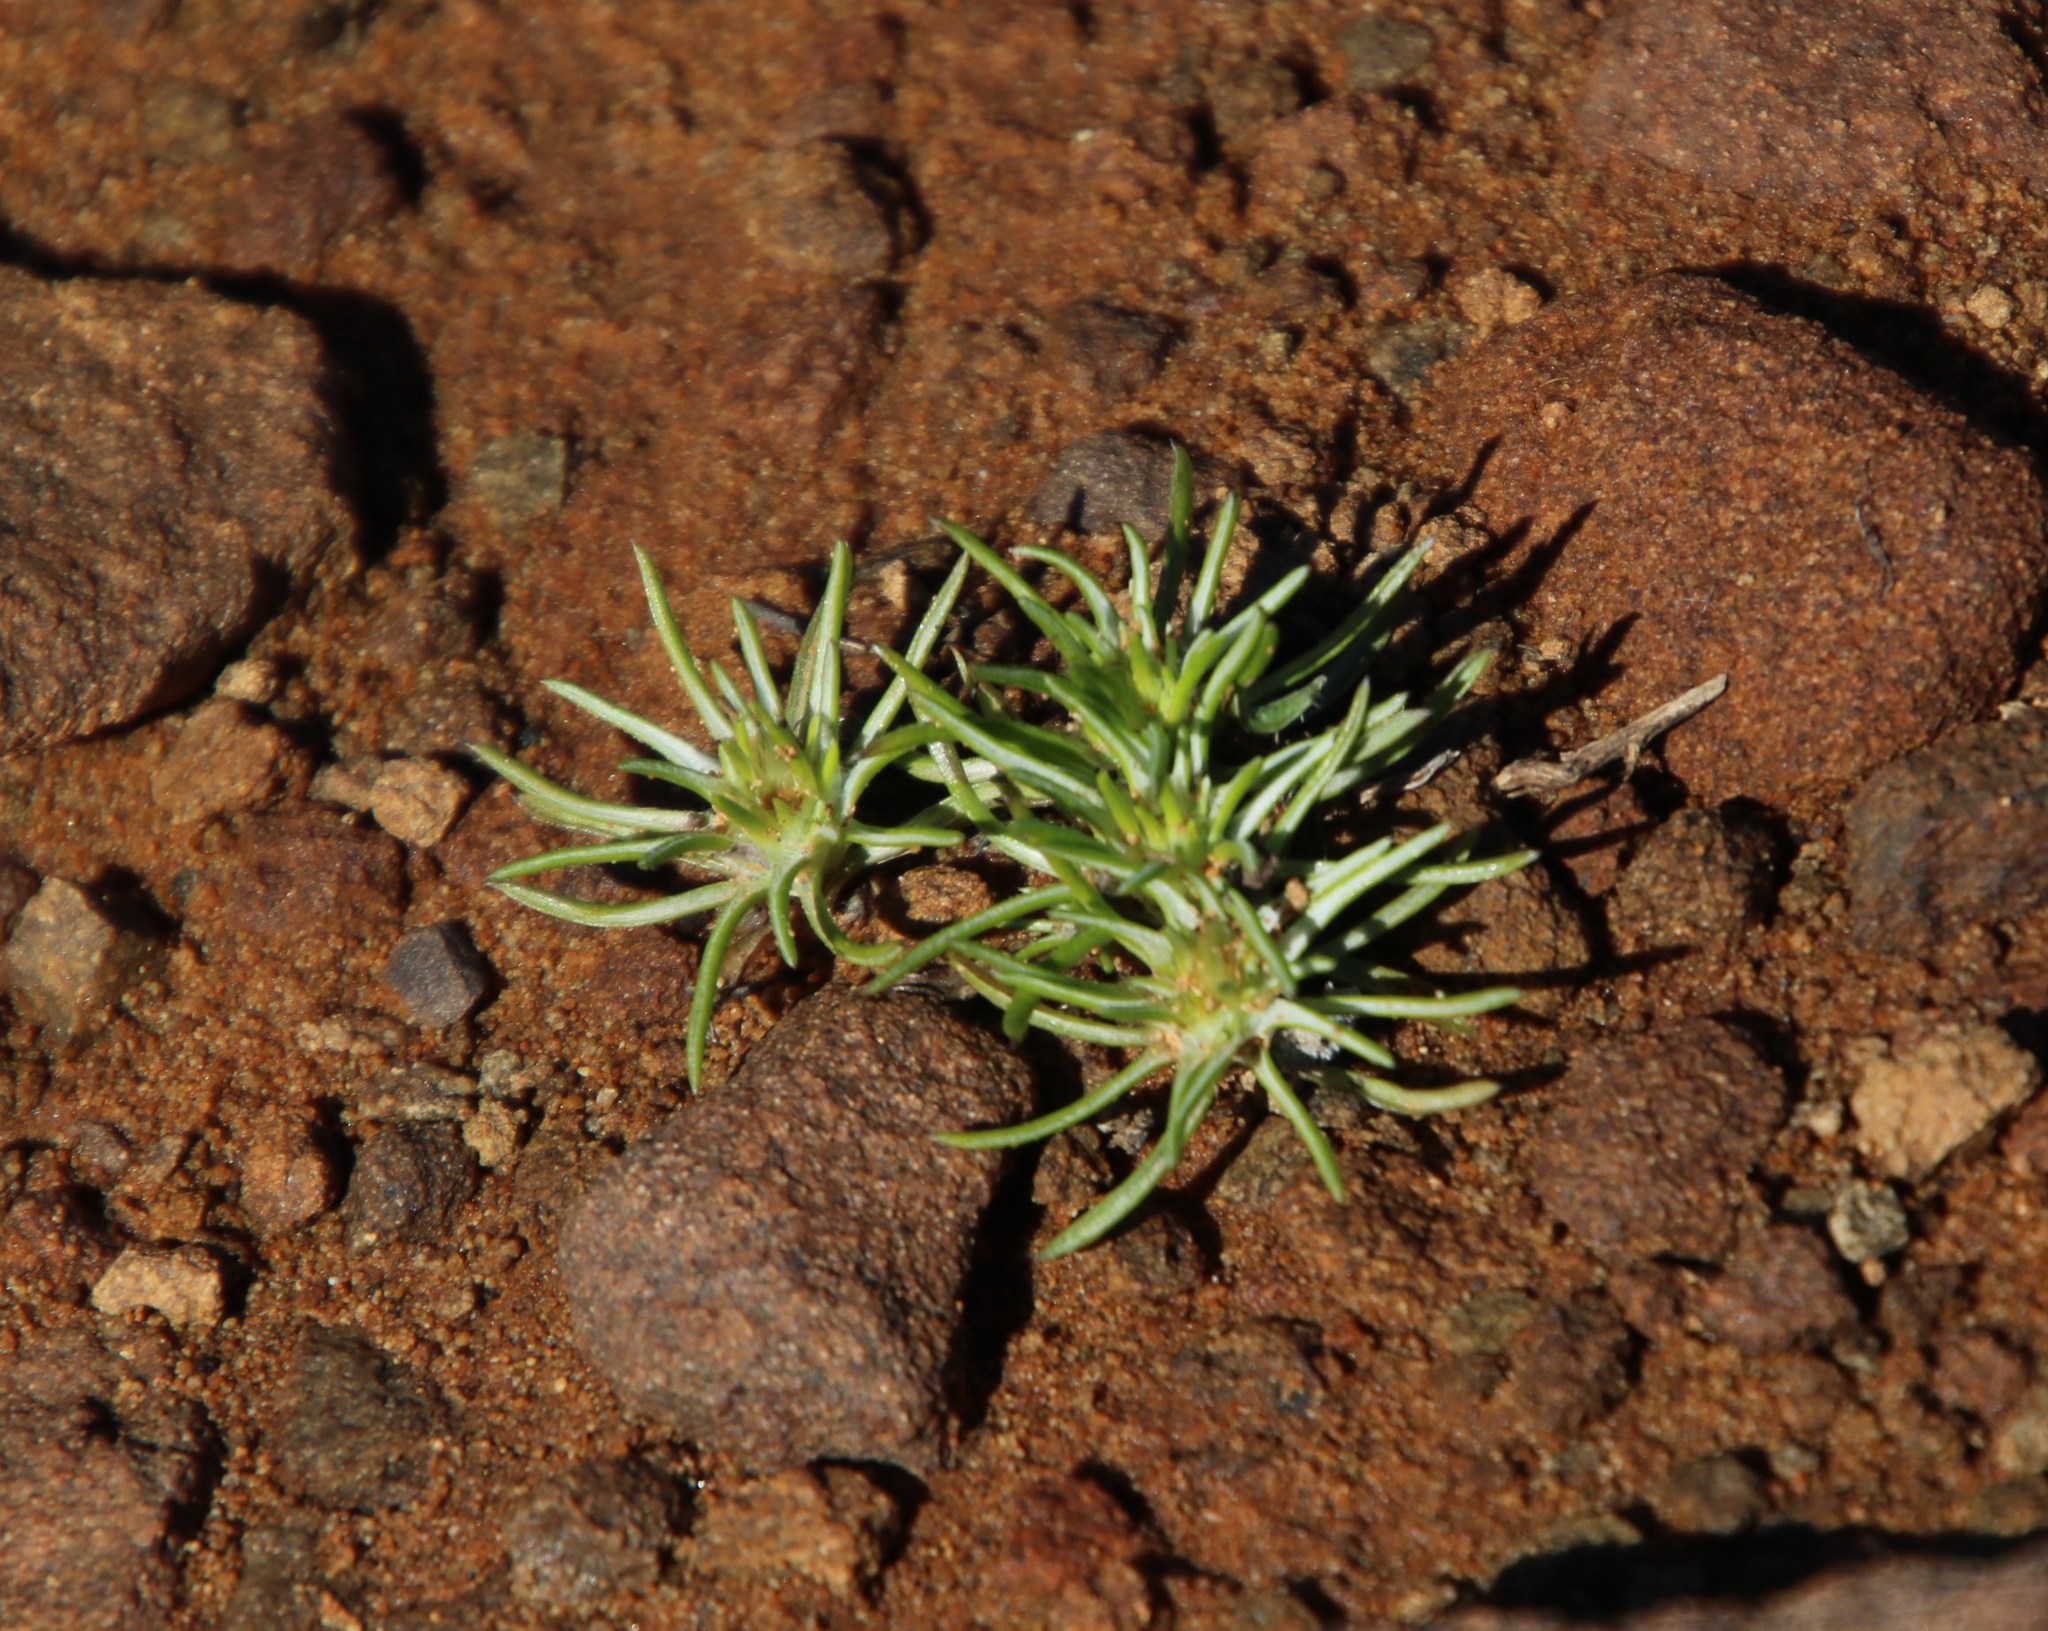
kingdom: Plantae
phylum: Tracheophyta
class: Magnoliopsida
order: Asterales
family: Asteraceae
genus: Ifloga
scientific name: Ifloga glomerata
